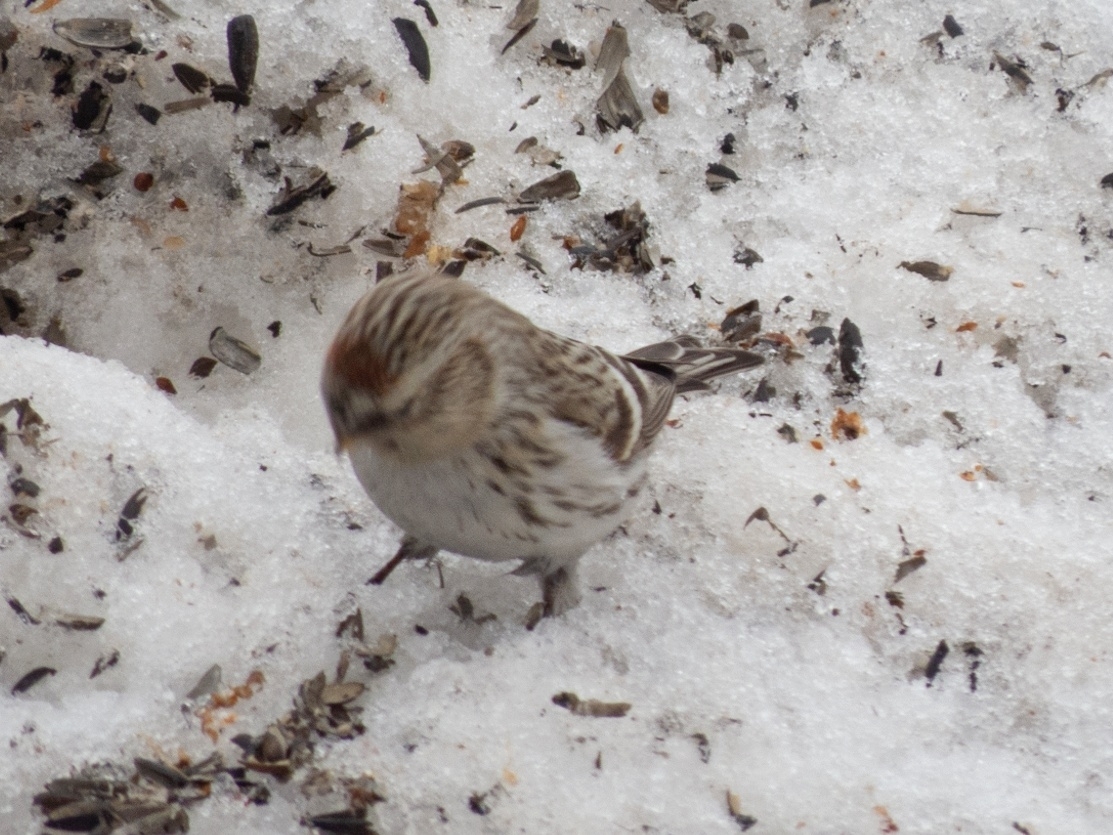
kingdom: Animalia
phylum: Chordata
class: Aves
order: Passeriformes
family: Fringillidae
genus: Acanthis
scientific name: Acanthis hornemanni
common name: Arctic redpoll
